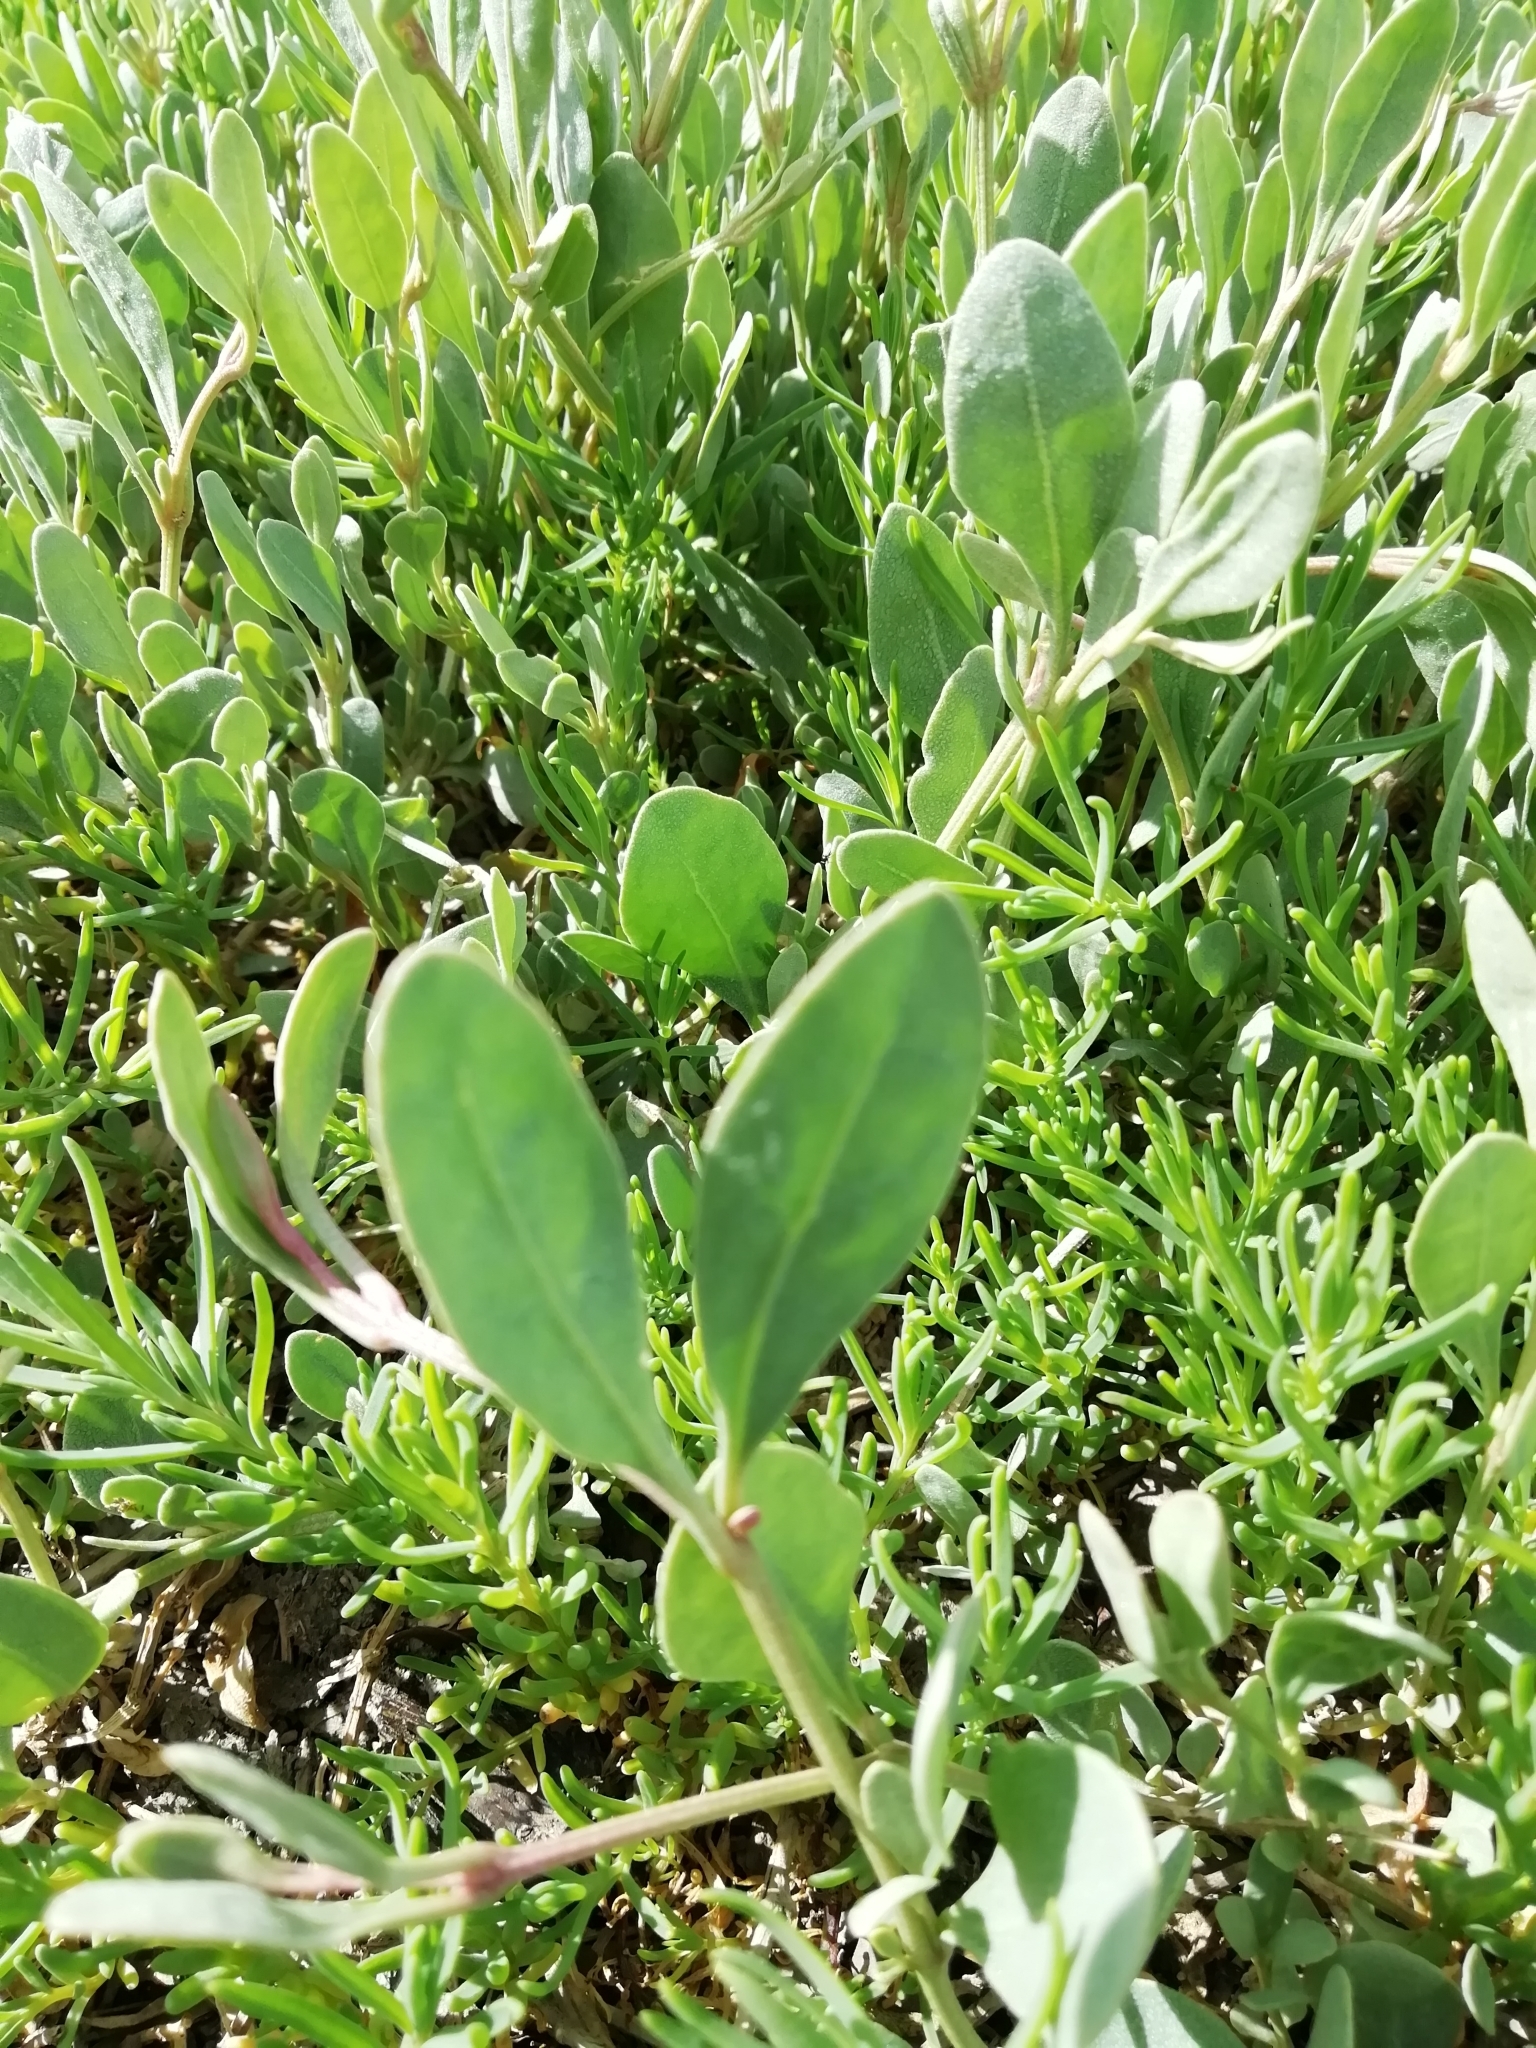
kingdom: Plantae
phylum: Tracheophyta
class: Magnoliopsida
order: Caryophyllales
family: Amaranthaceae
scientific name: Amaranthaceae
